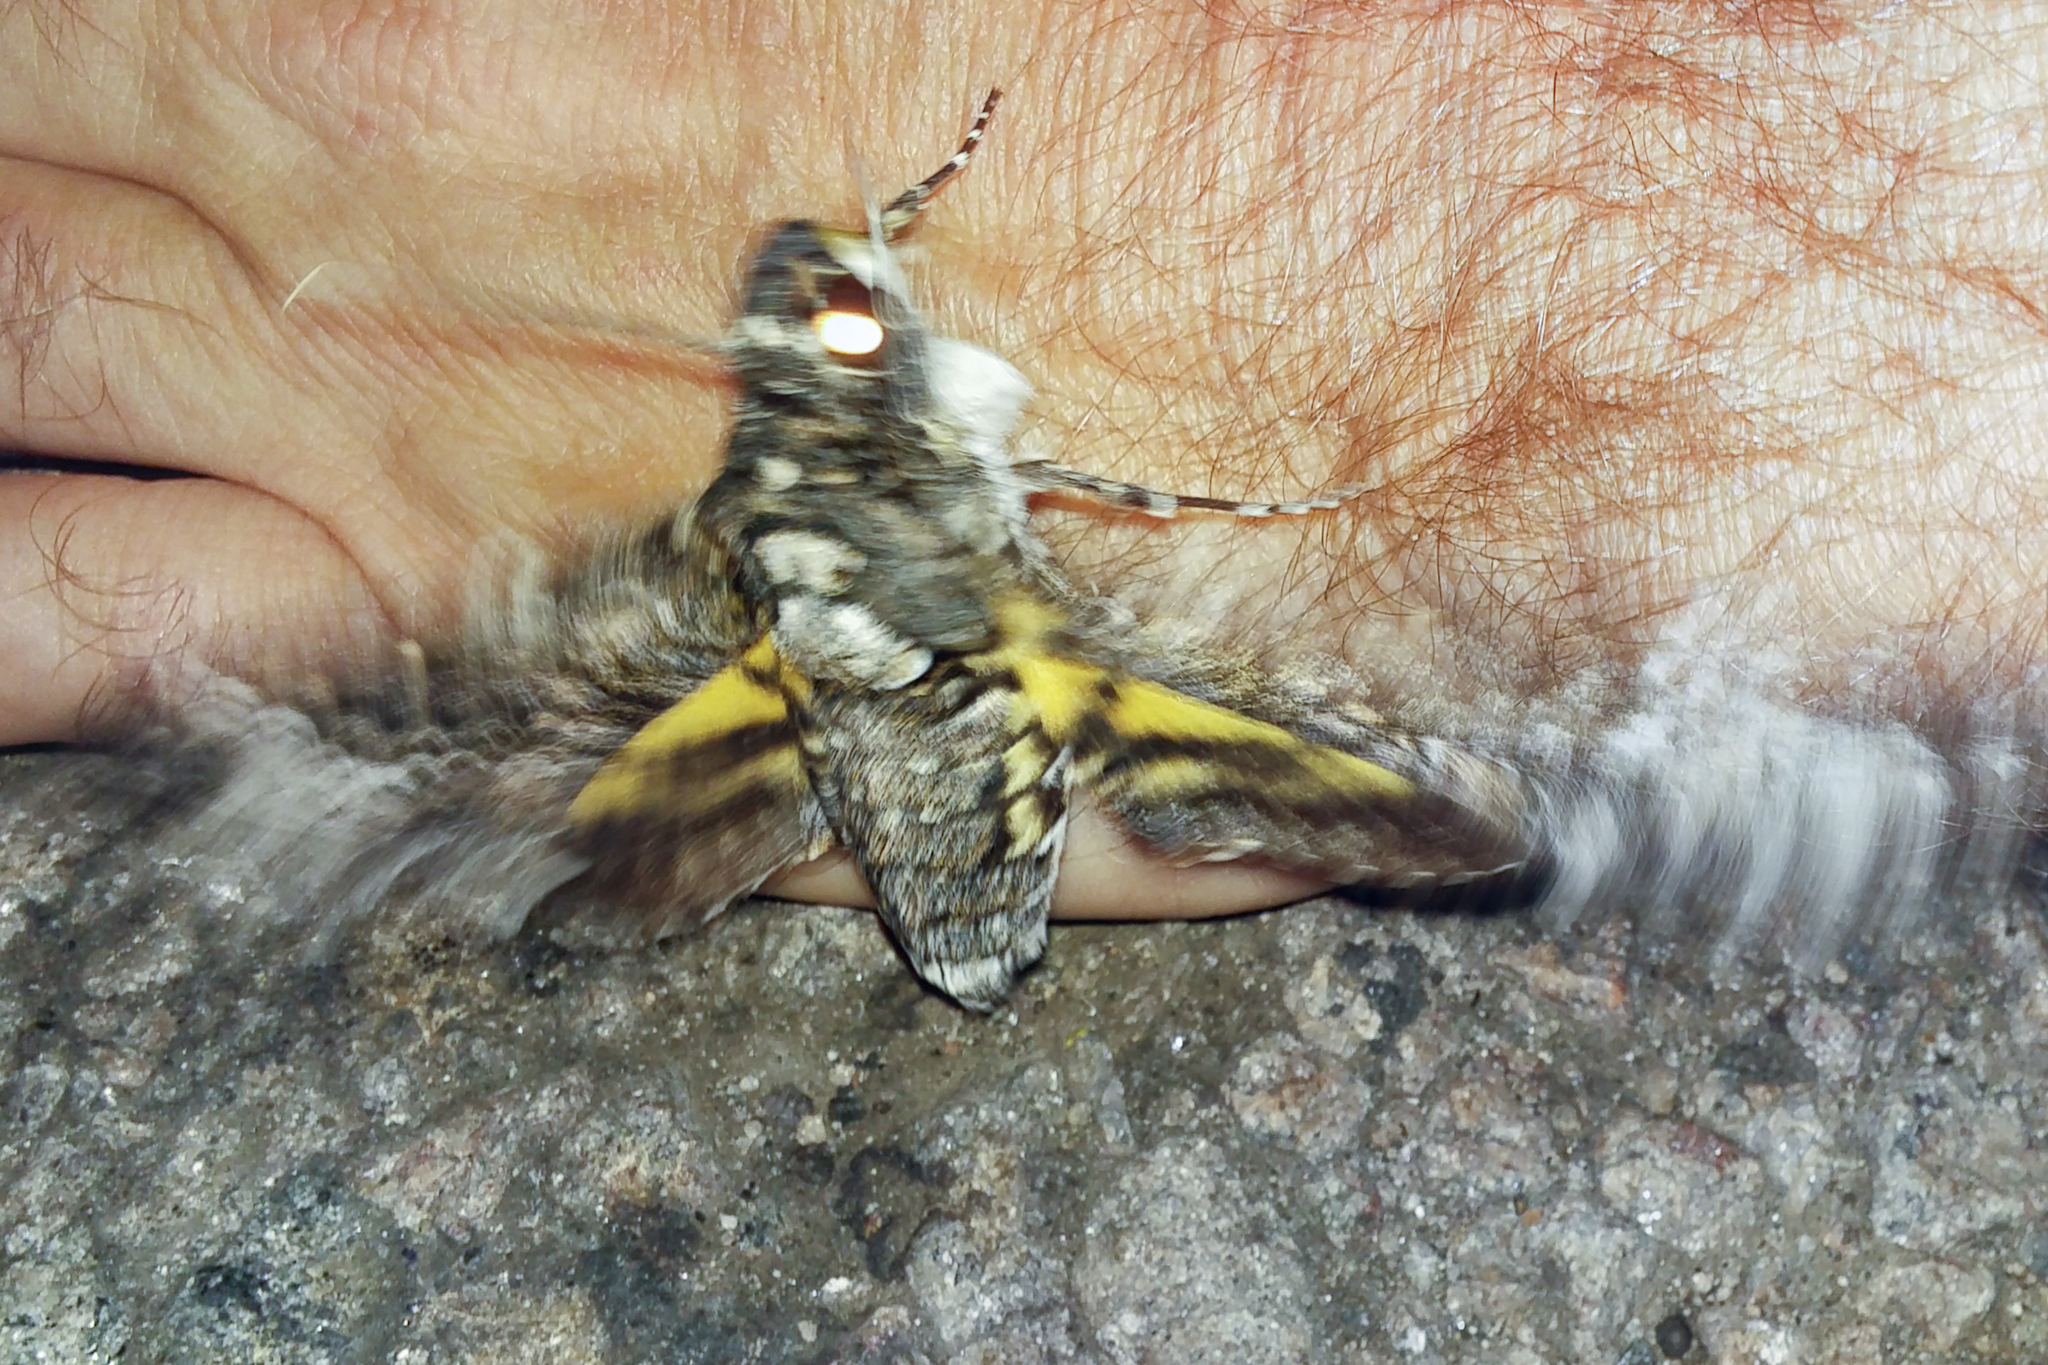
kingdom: Animalia
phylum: Arthropoda
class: Insecta
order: Lepidoptera
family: Sphingidae
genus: Coelonia
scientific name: Coelonia solani
